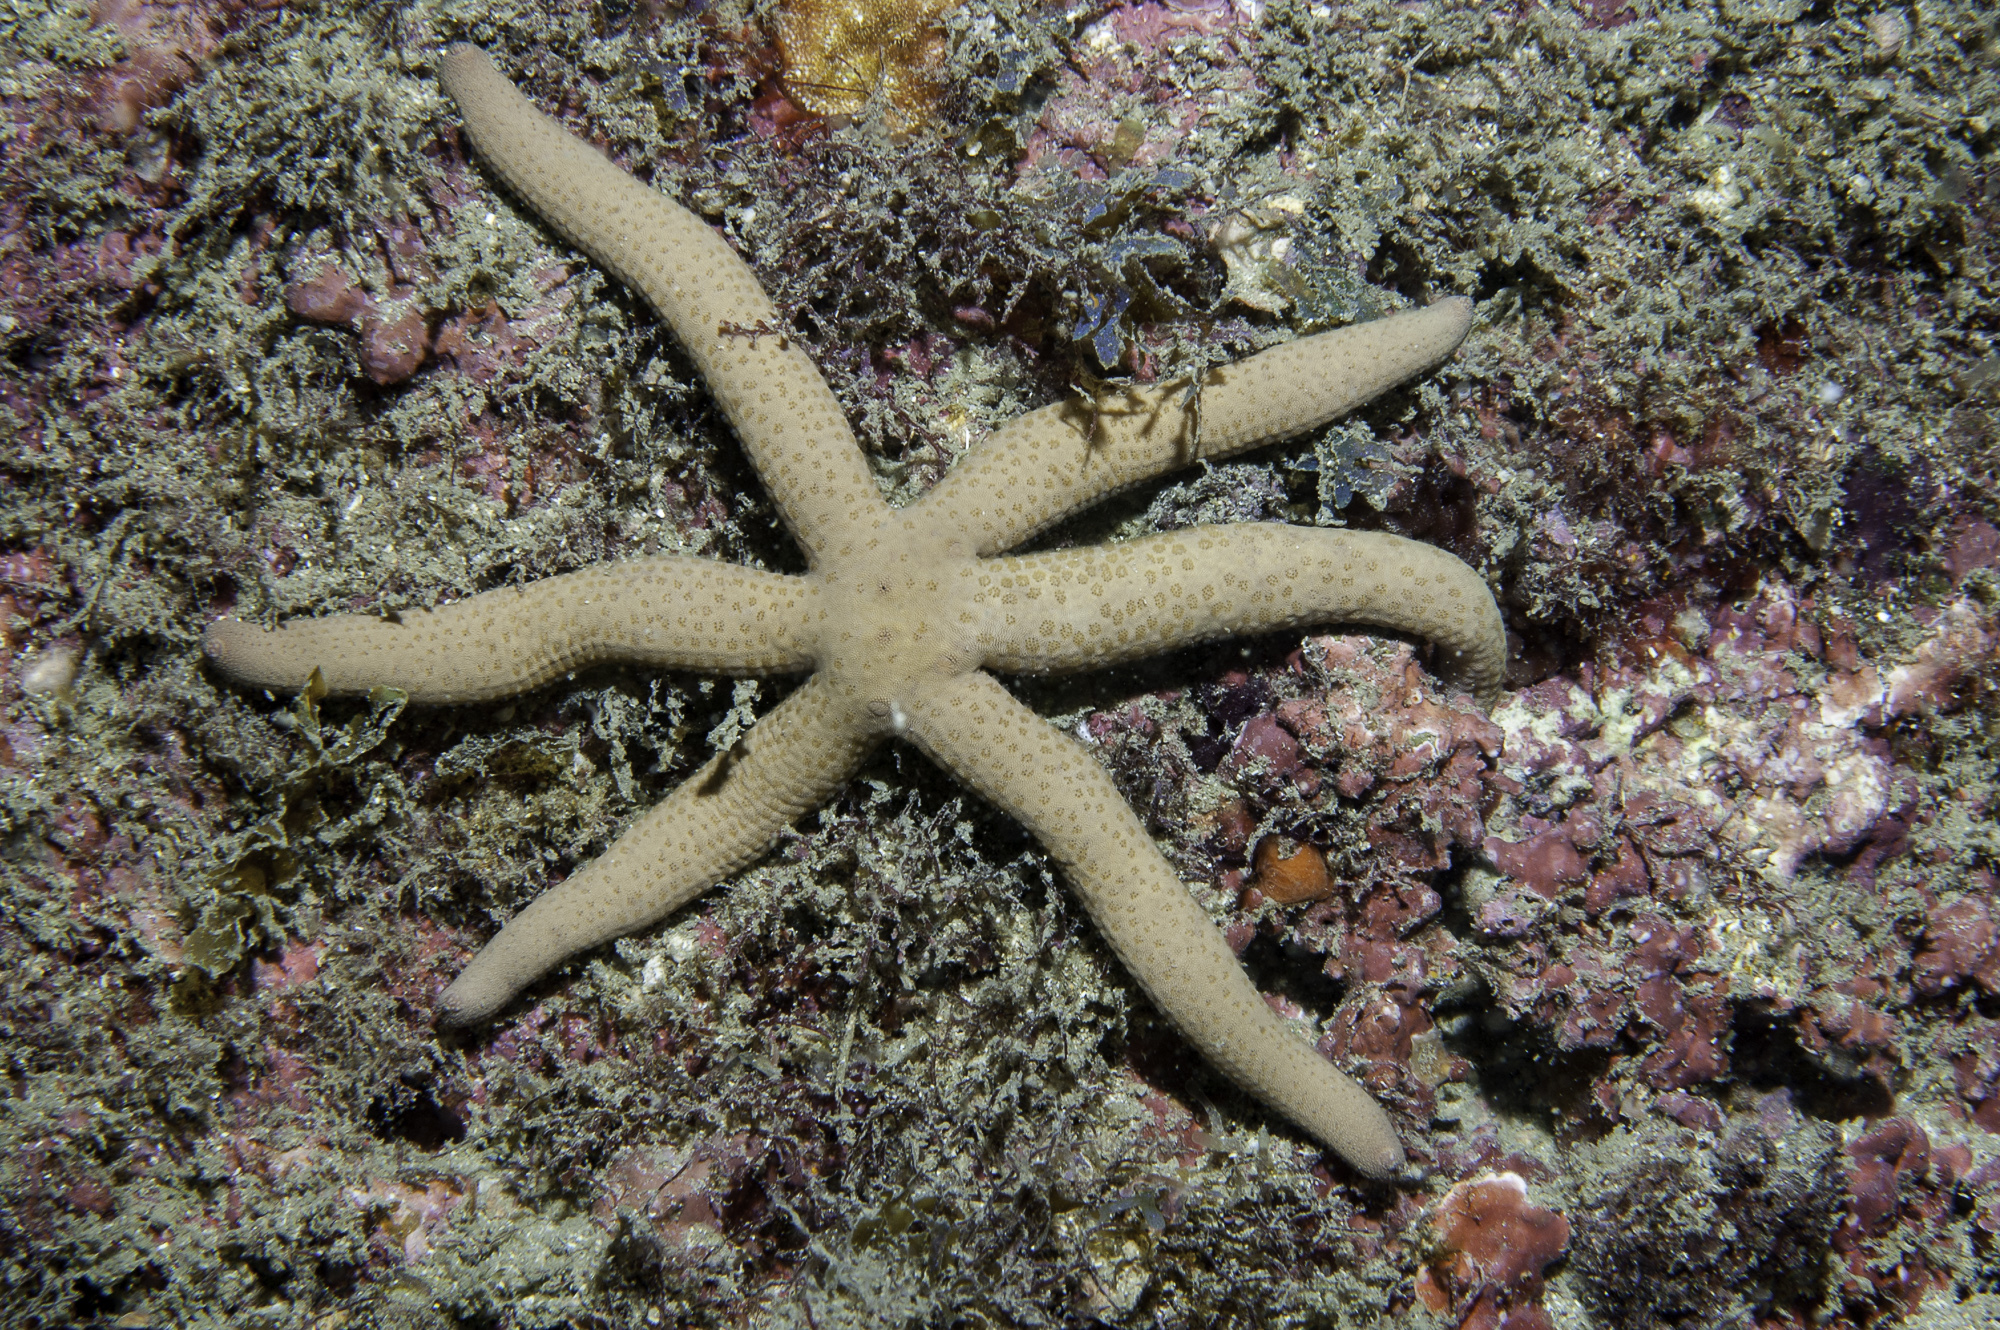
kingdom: Animalia
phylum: Echinodermata
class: Asteroidea
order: Valvatida
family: Ophidiasteridae
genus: Linckia
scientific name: Linckia guildingi
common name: Common comet star
